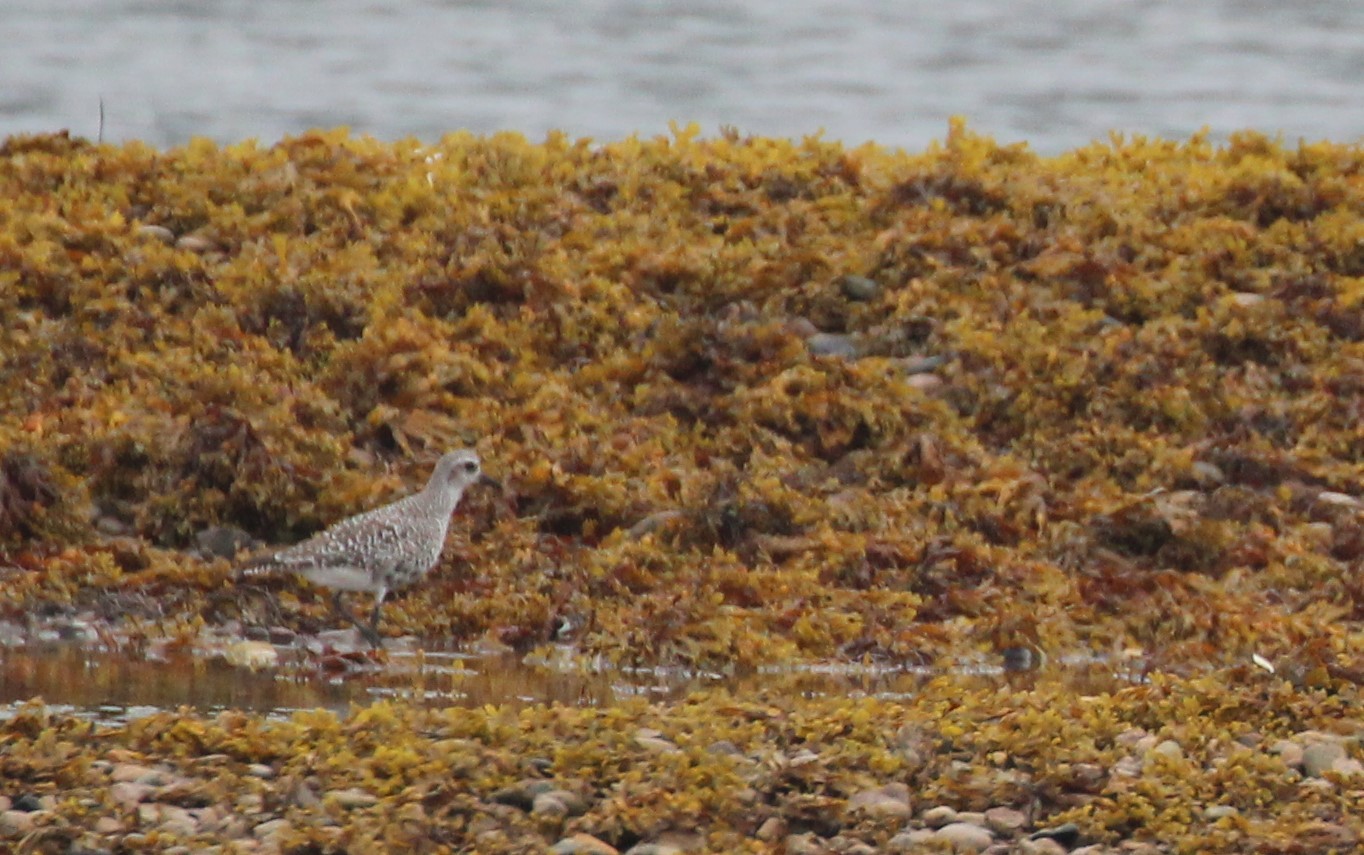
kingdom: Animalia
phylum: Chordata
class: Aves
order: Charadriiformes
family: Charadriidae
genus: Pluvialis
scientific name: Pluvialis squatarola
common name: Grey plover
